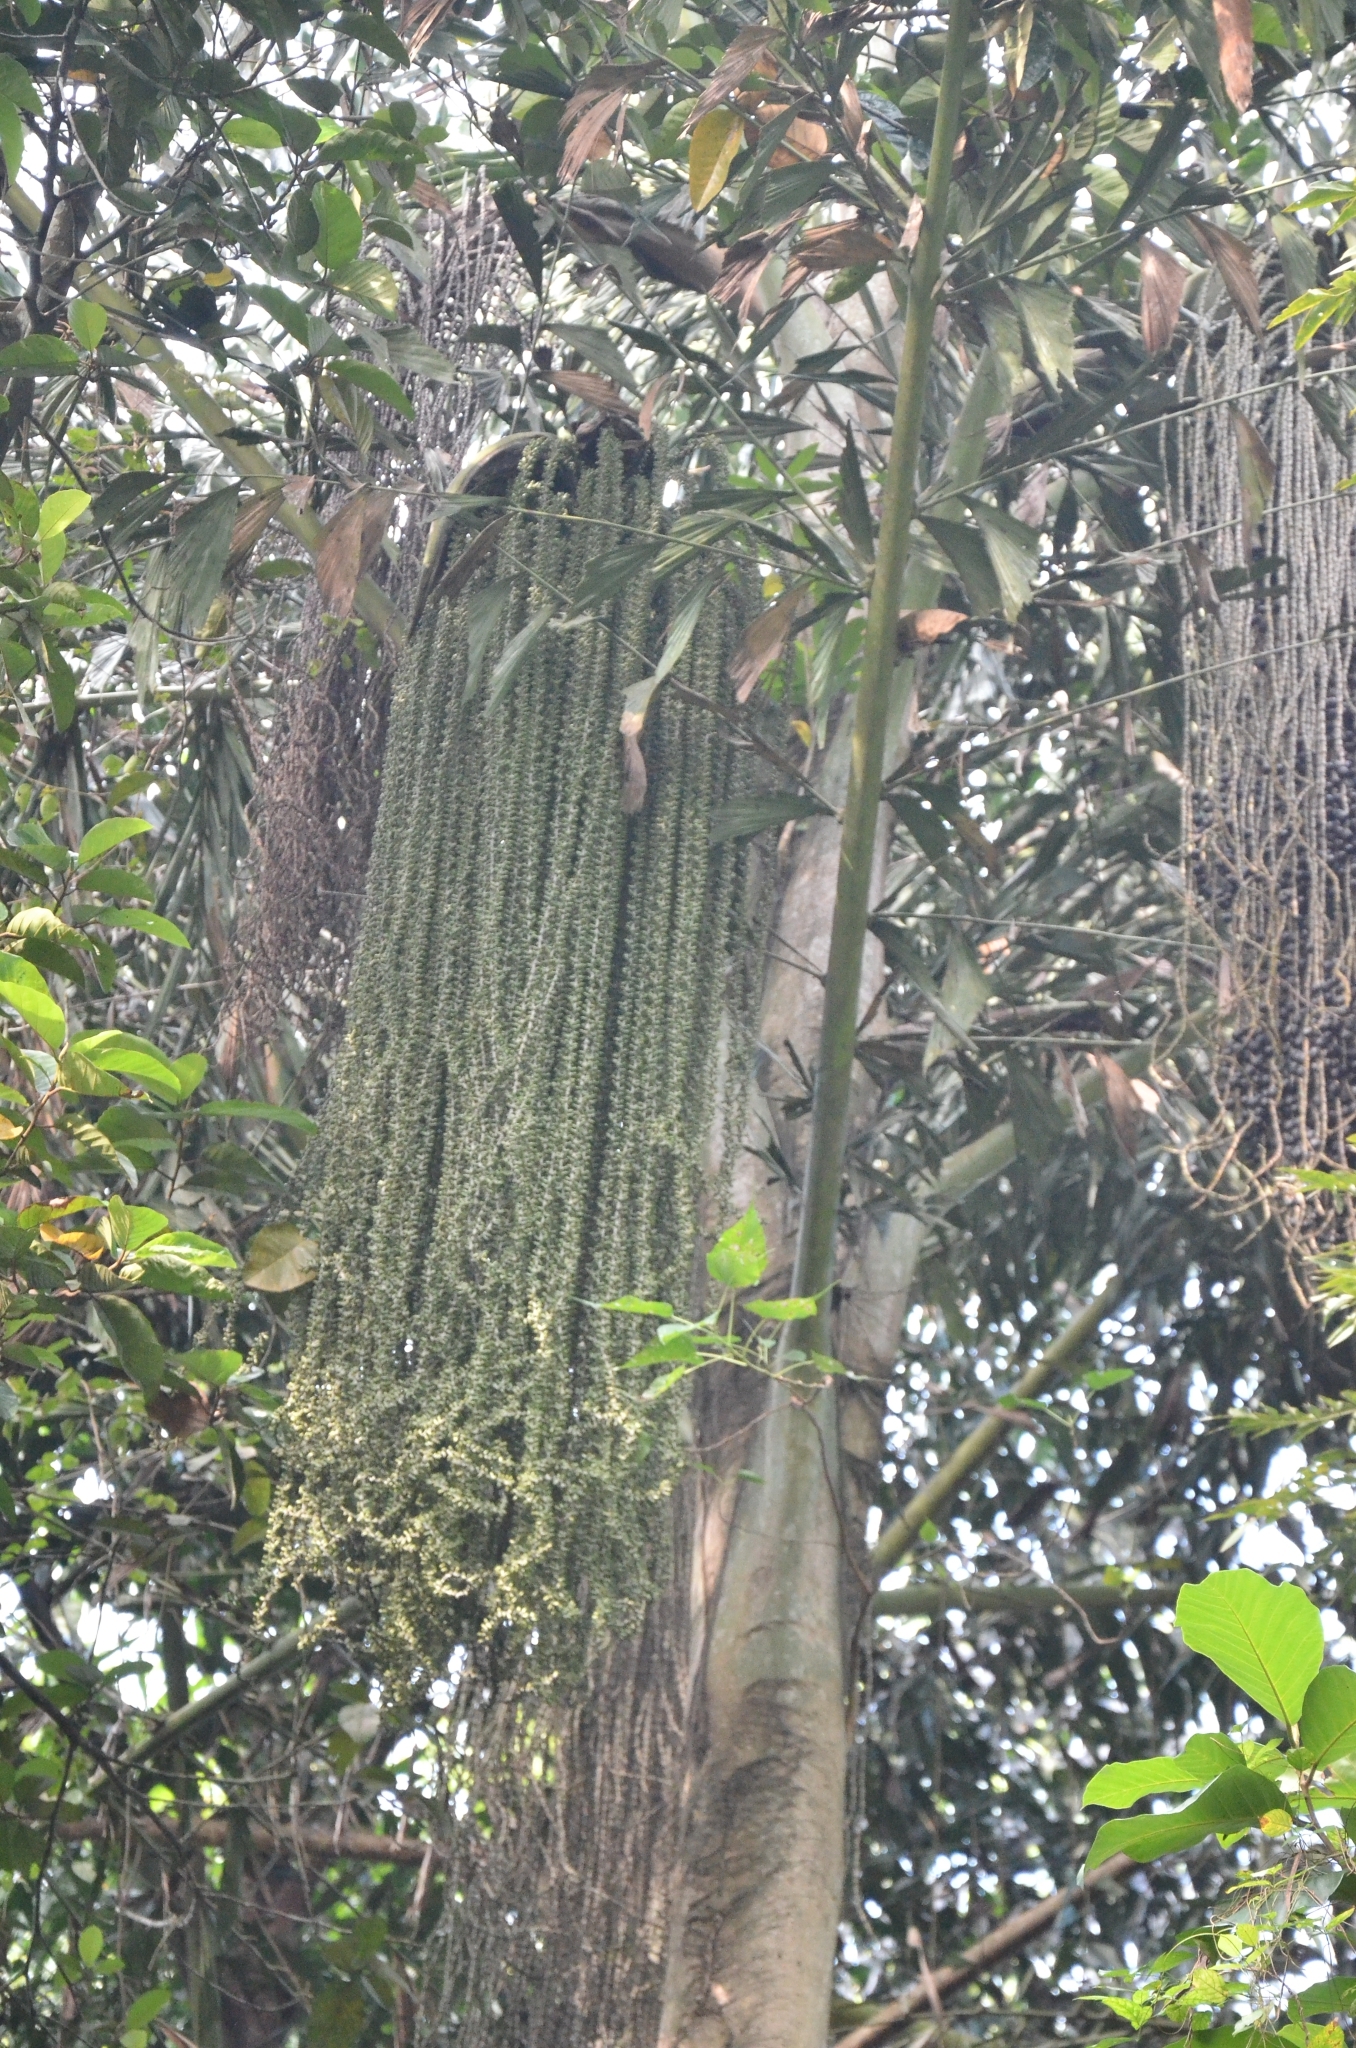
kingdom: Plantae
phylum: Tracheophyta
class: Liliopsida
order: Arecales
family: Arecaceae
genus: Caryota
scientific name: Caryota urens
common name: Jaggery palm
